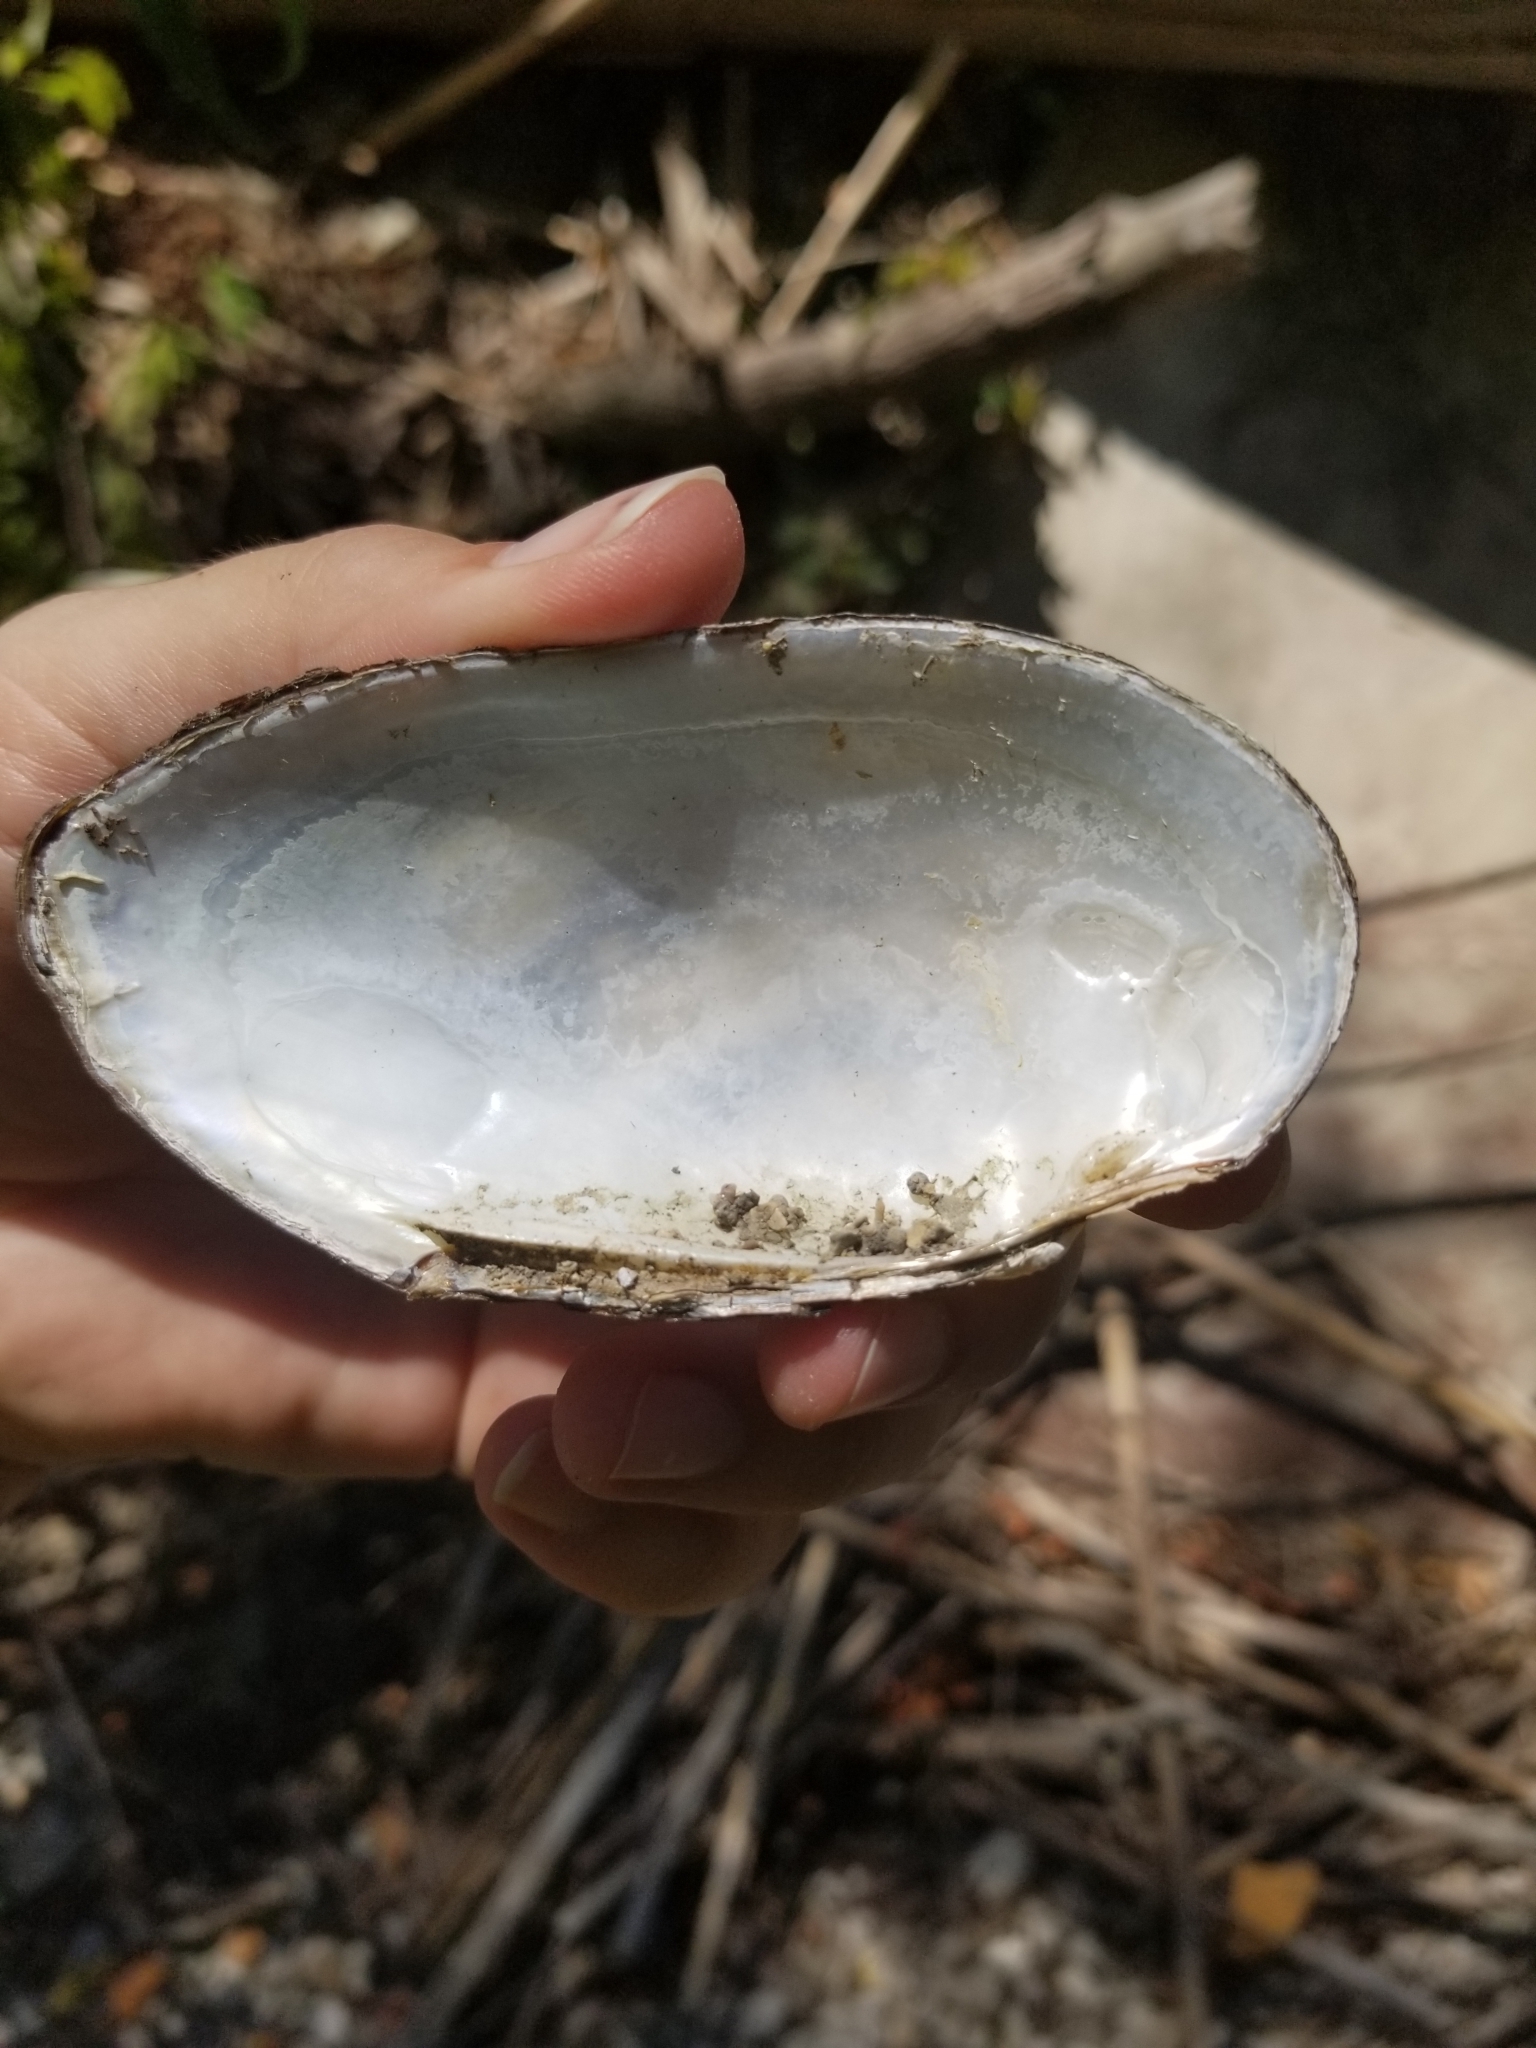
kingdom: Animalia
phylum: Mollusca
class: Bivalvia
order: Unionida
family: Unionidae
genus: Uniomerus
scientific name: Uniomerus tetralasmus
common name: Pondhorn
